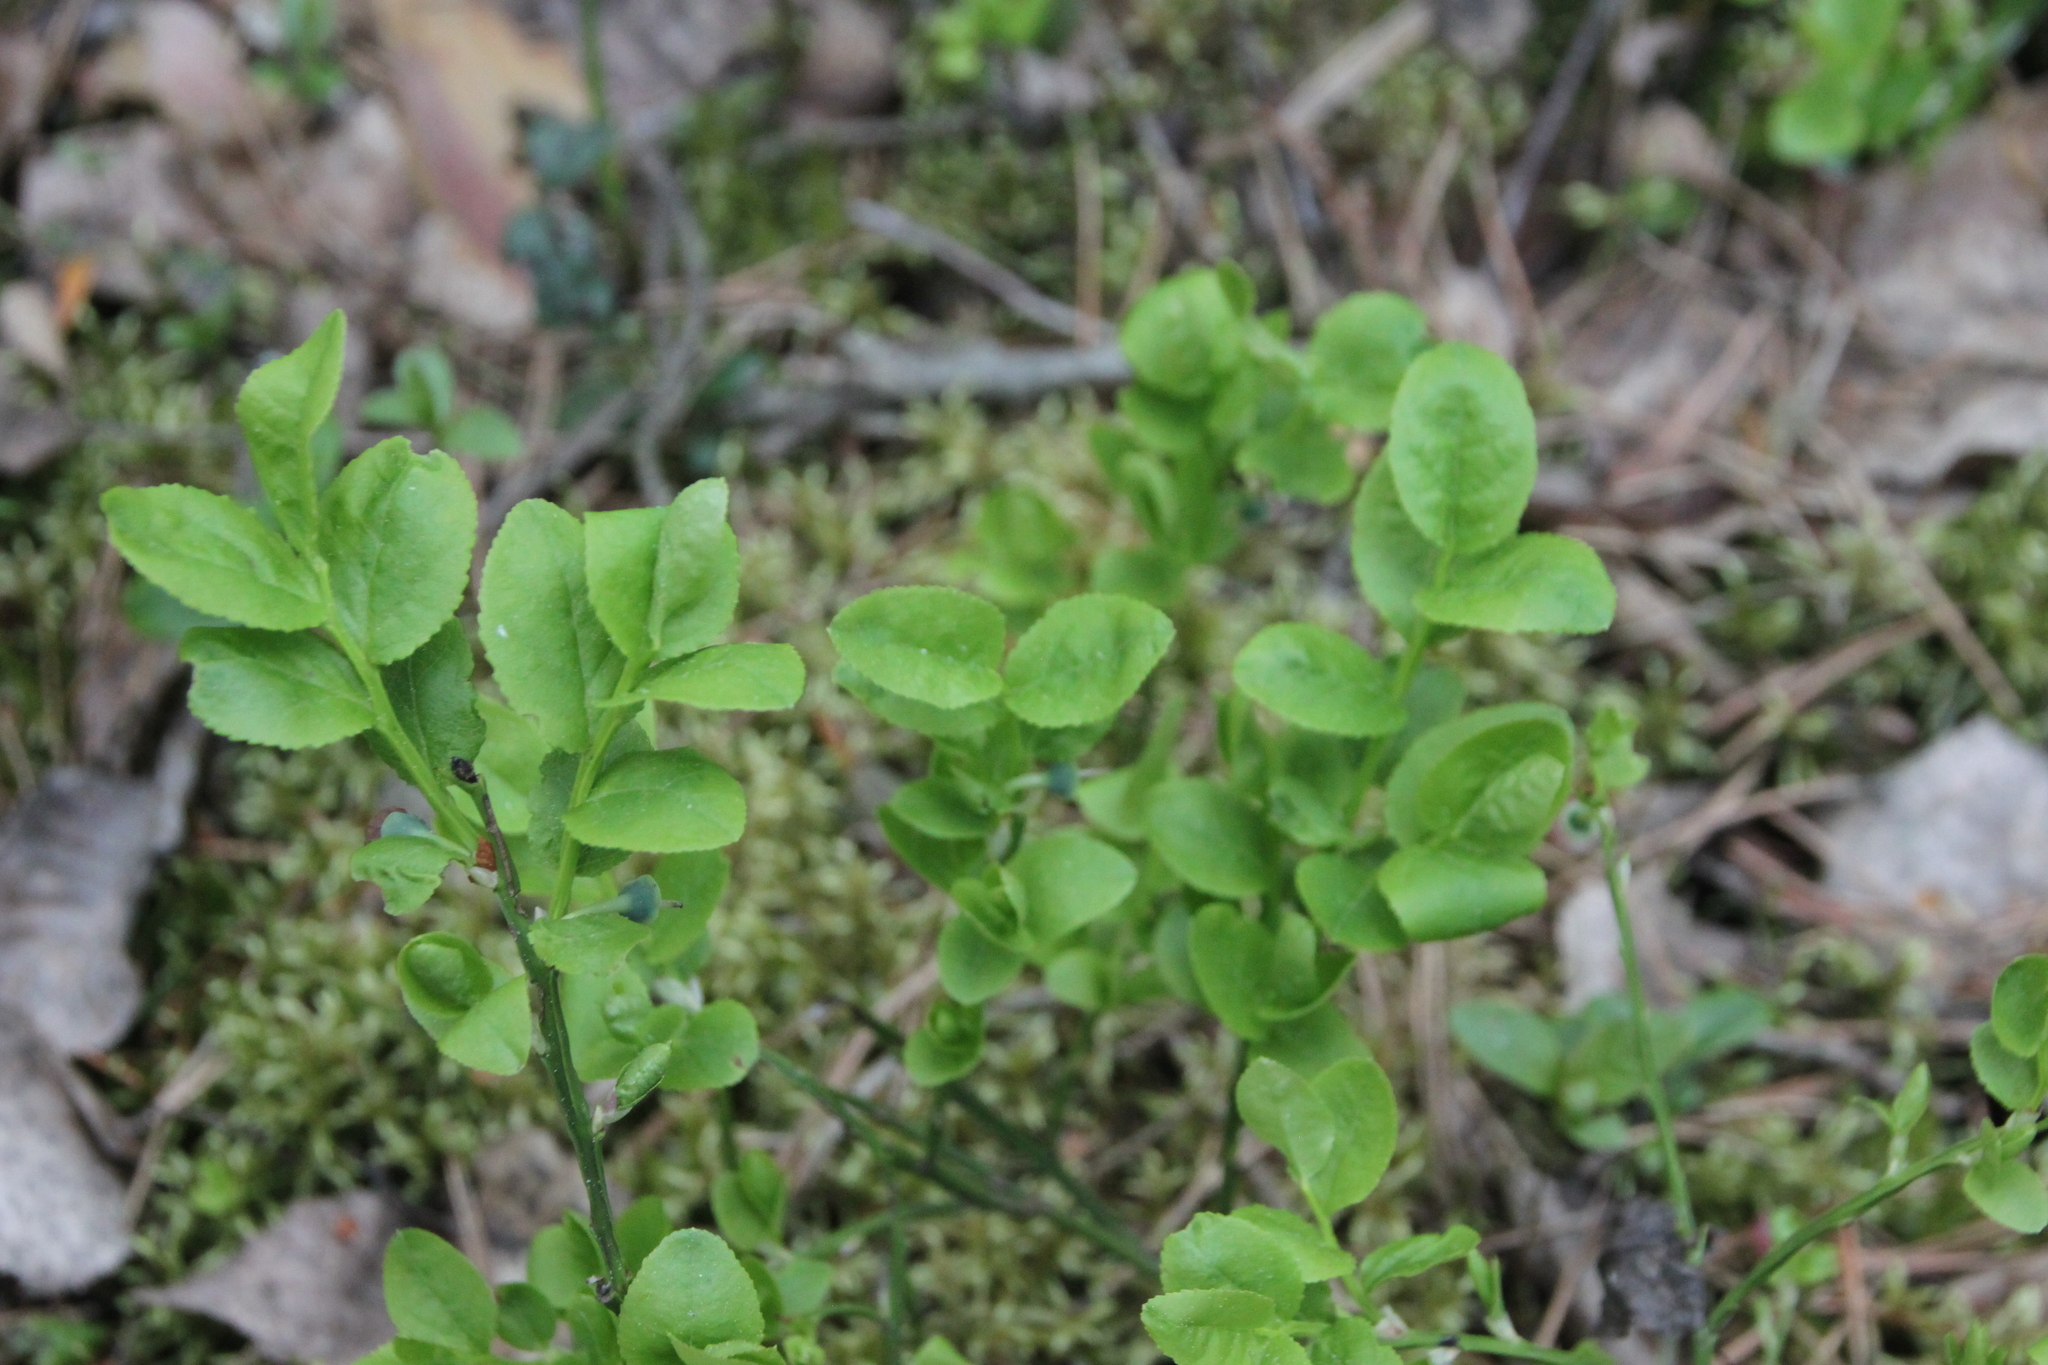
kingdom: Plantae
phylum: Tracheophyta
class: Magnoliopsida
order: Ericales
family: Ericaceae
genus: Vaccinium
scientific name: Vaccinium myrtillus
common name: Bilberry
